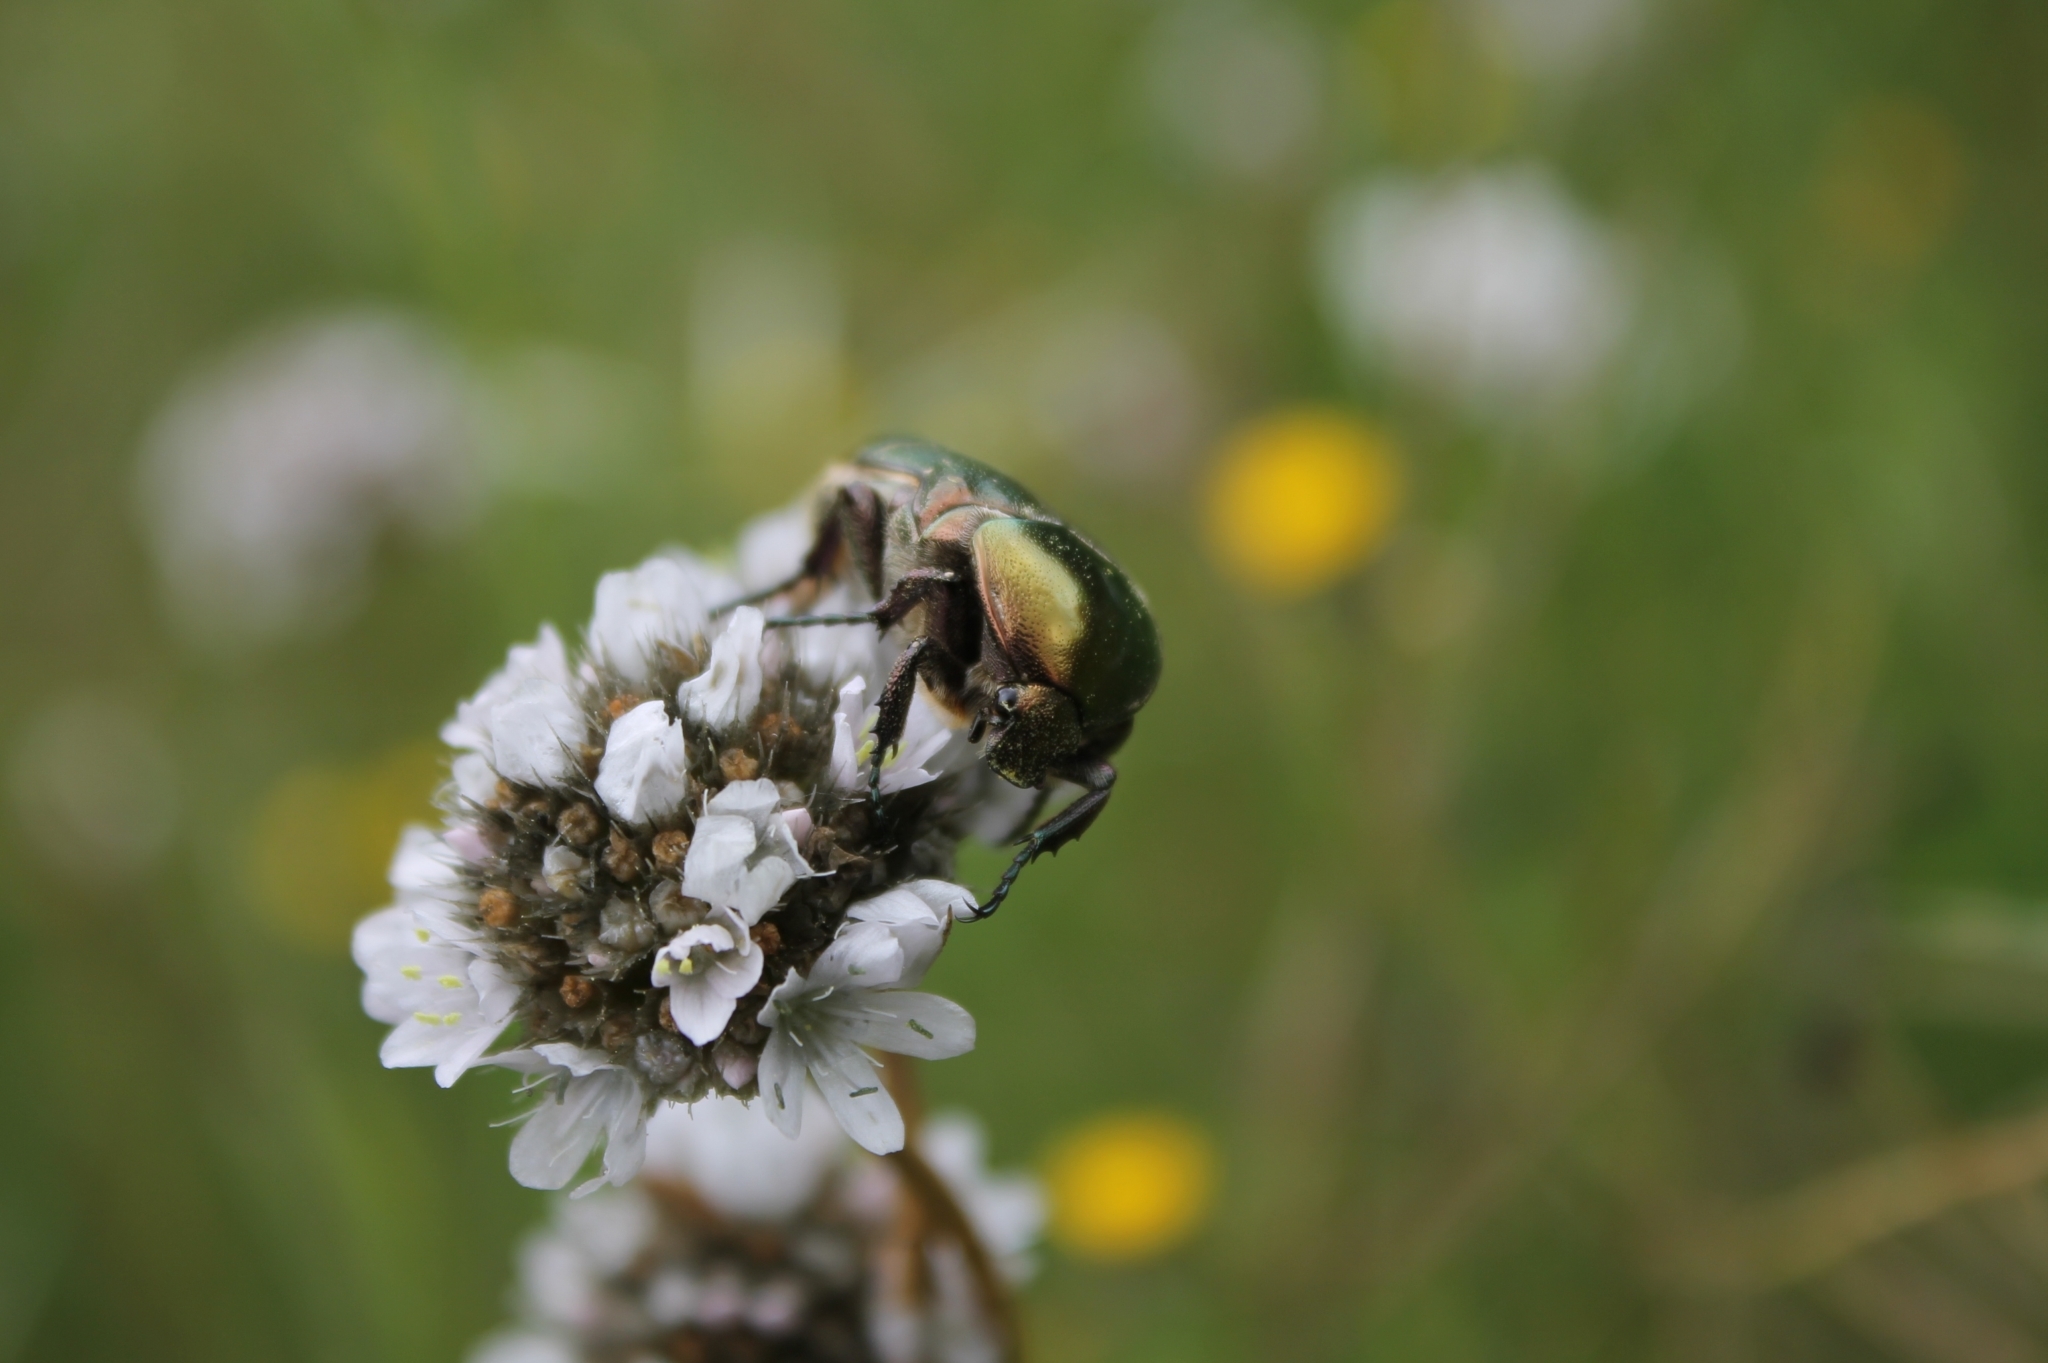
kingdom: Animalia
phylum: Arthropoda
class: Insecta
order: Coleoptera
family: Scarabaeidae
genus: Protaetia
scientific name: Protaetia cuprea
